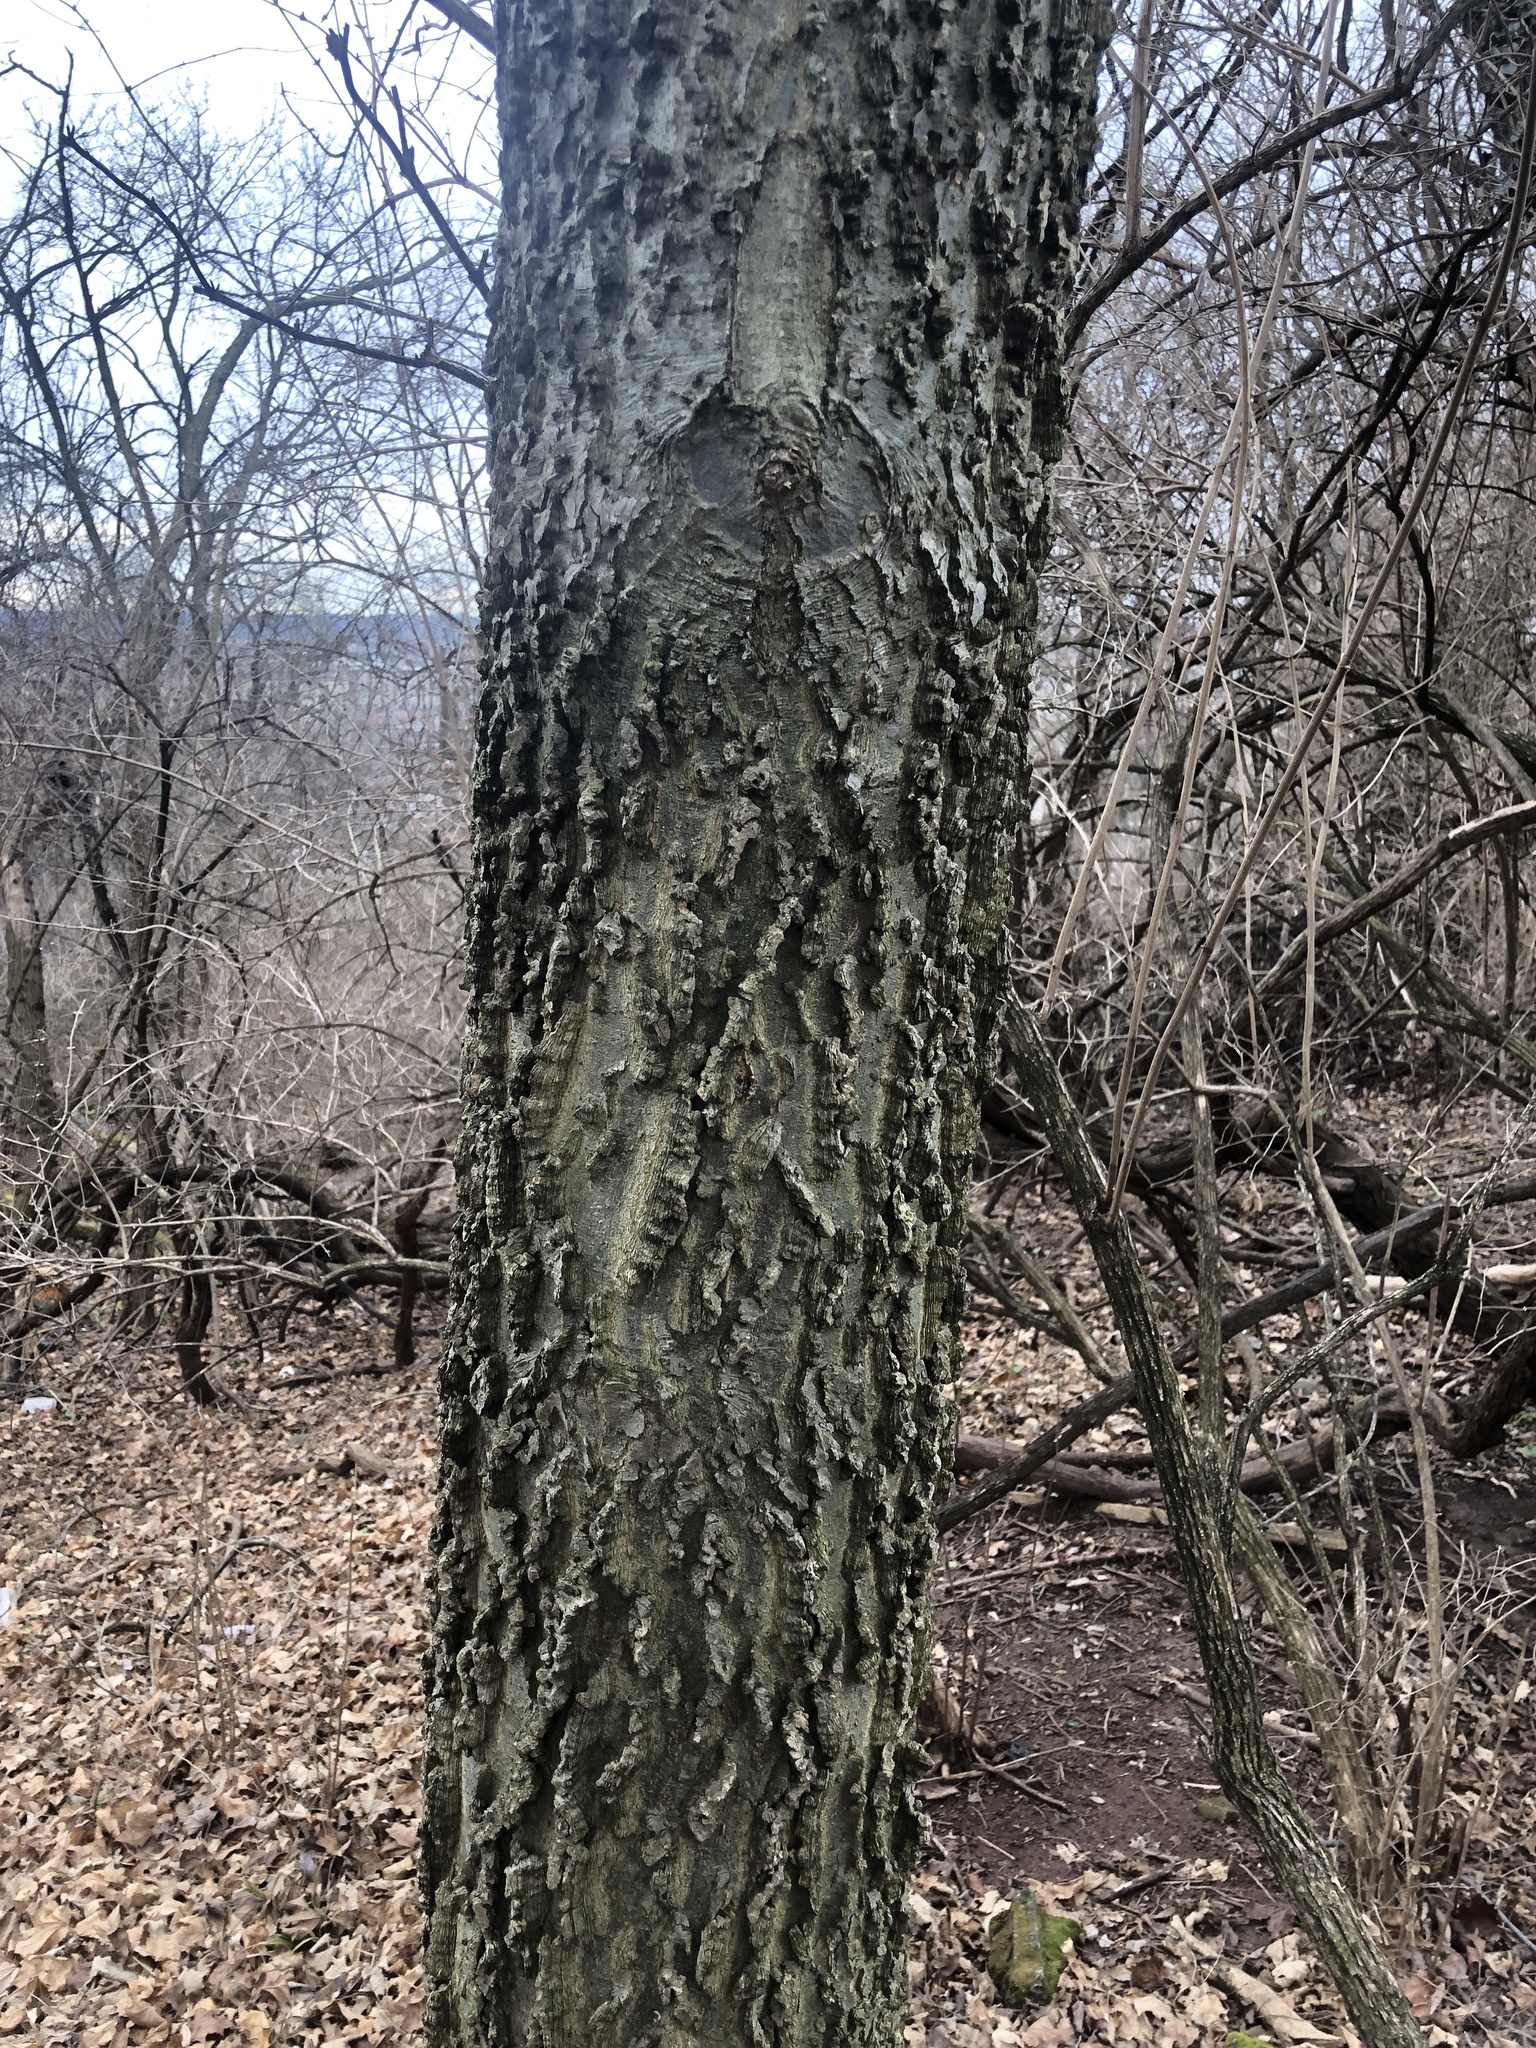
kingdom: Plantae
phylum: Tracheophyta
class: Magnoliopsida
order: Rosales
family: Cannabaceae
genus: Celtis
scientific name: Celtis occidentalis
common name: Common hackberry
